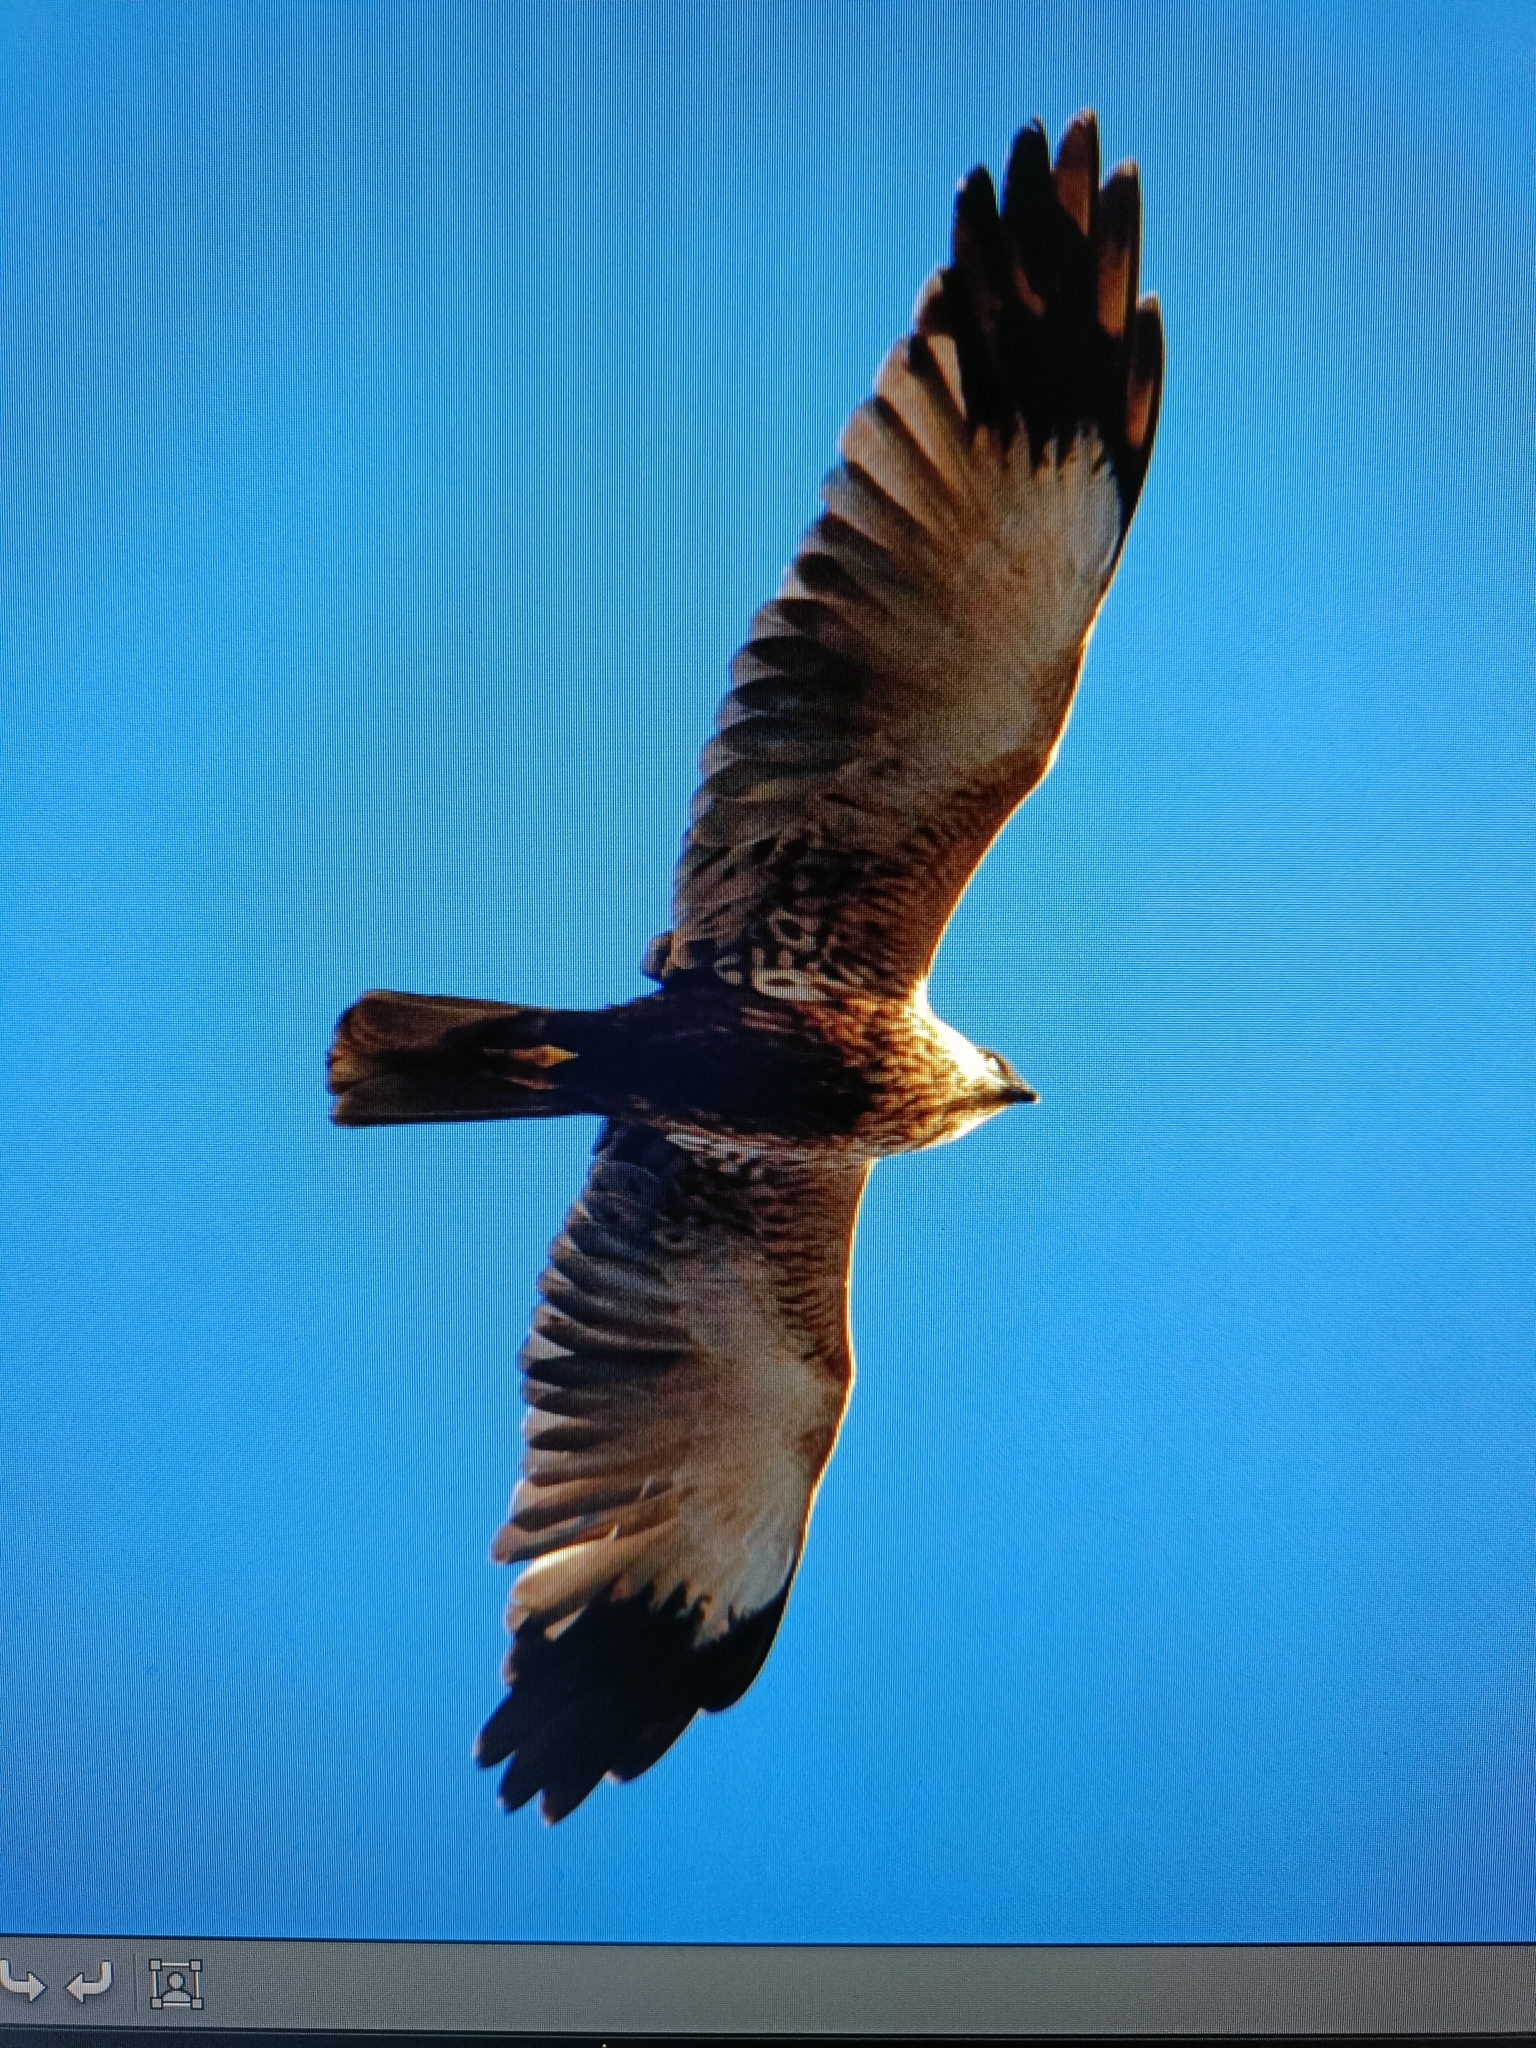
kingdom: Animalia
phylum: Chordata
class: Aves
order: Accipitriformes
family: Accipitridae
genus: Circus
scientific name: Circus aeruginosus
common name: Western marsh harrier
